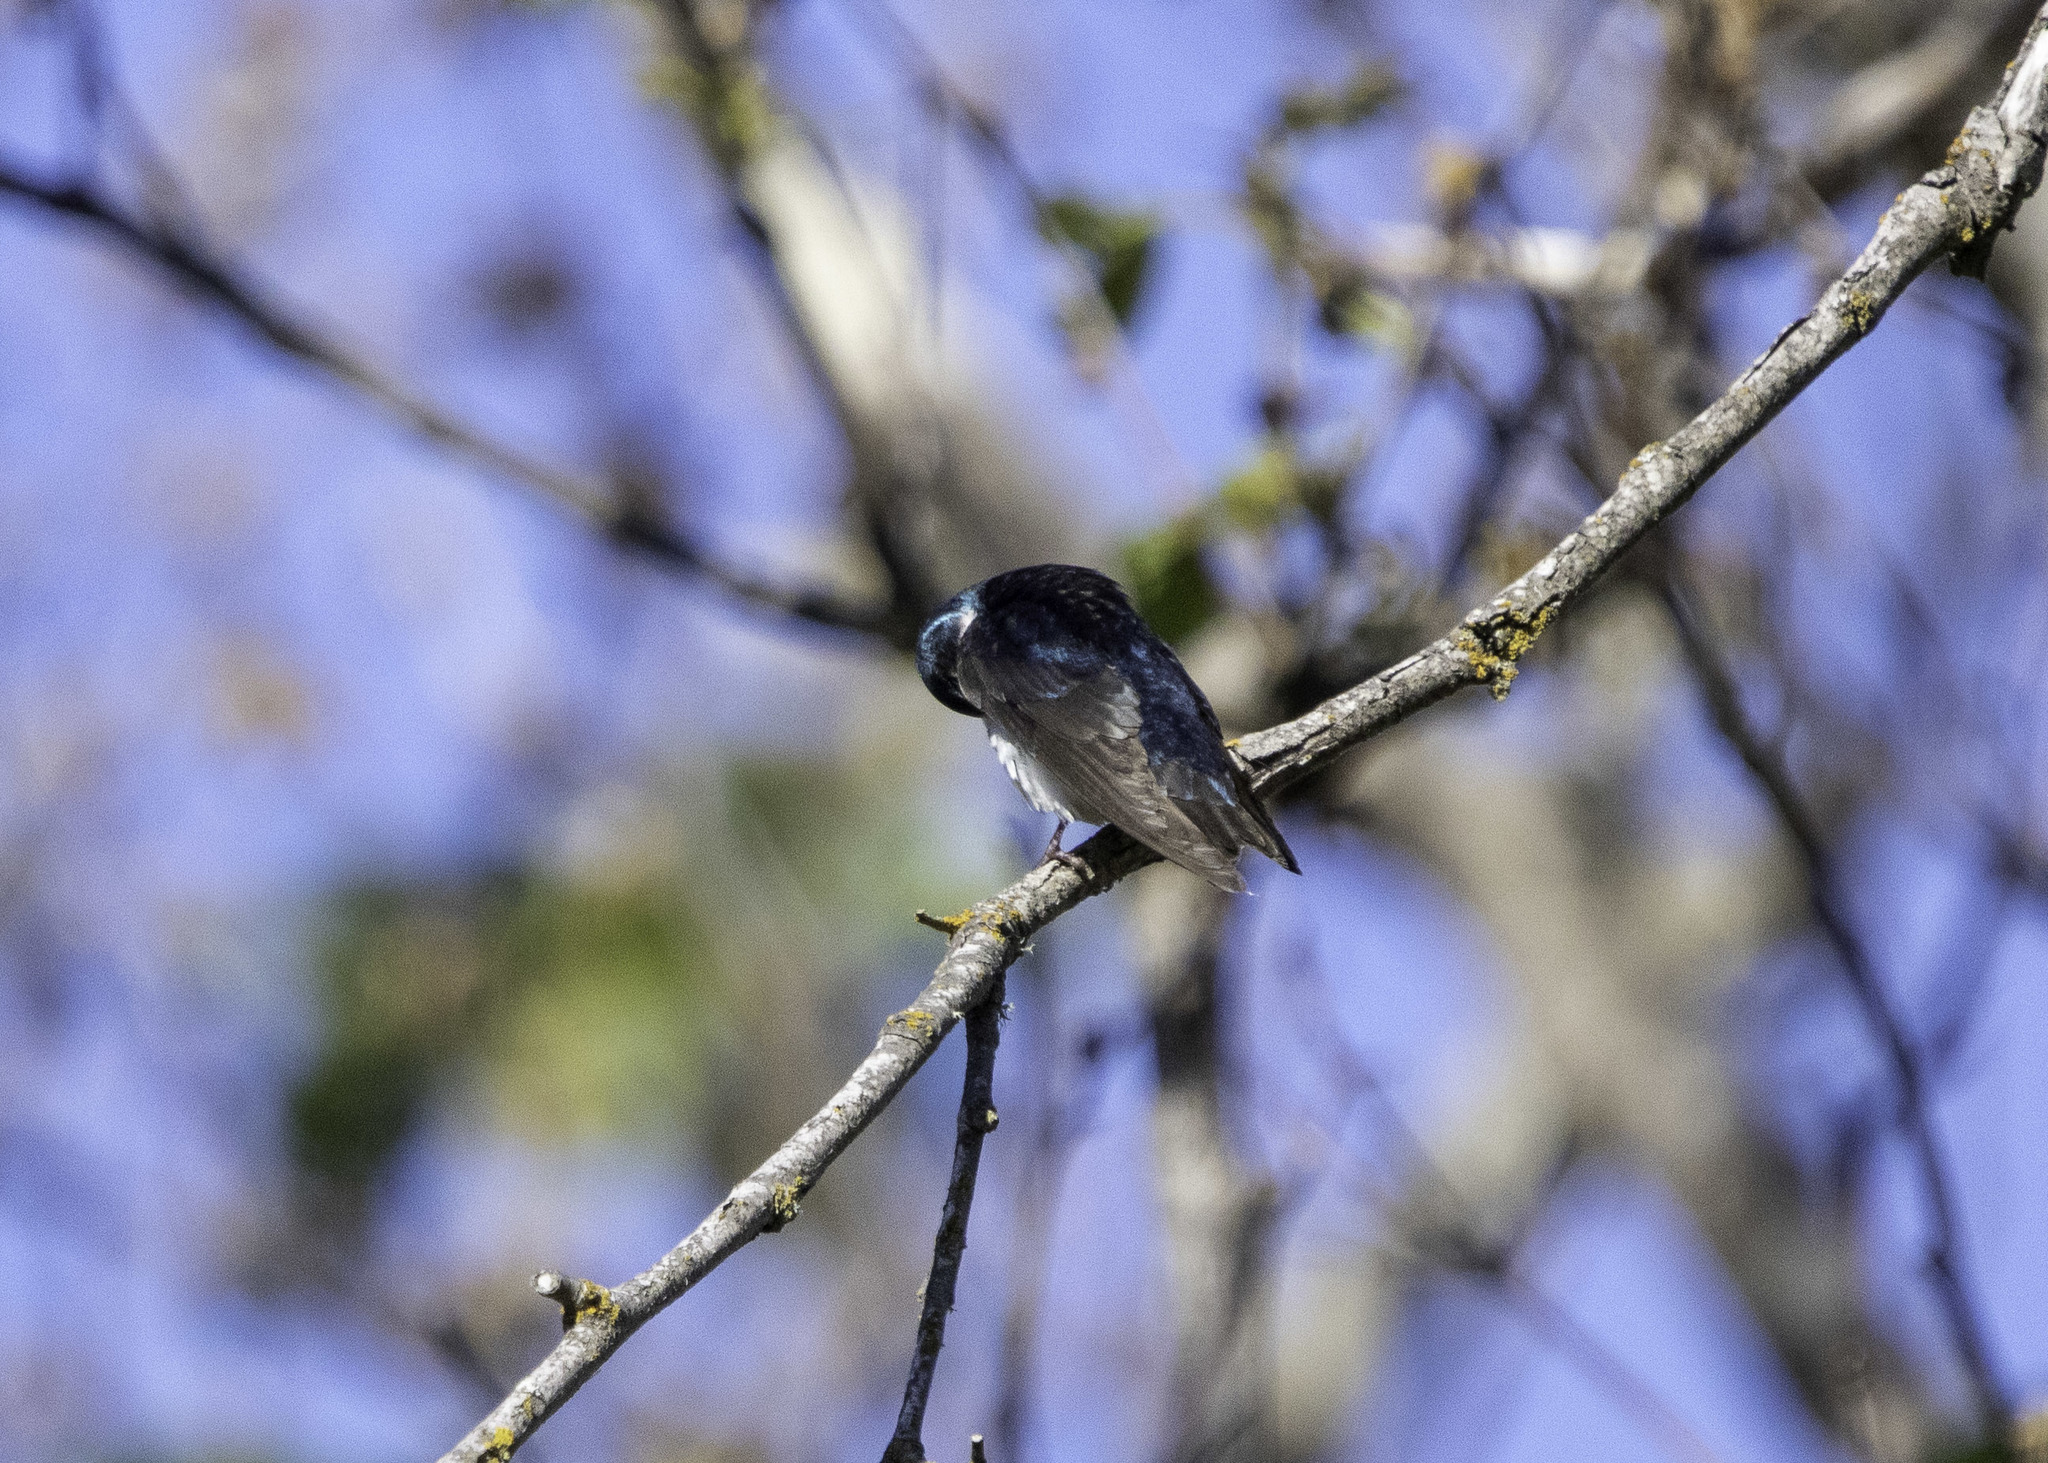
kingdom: Animalia
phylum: Chordata
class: Aves
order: Passeriformes
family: Hirundinidae
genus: Tachycineta
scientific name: Tachycineta bicolor
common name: Tree swallow
